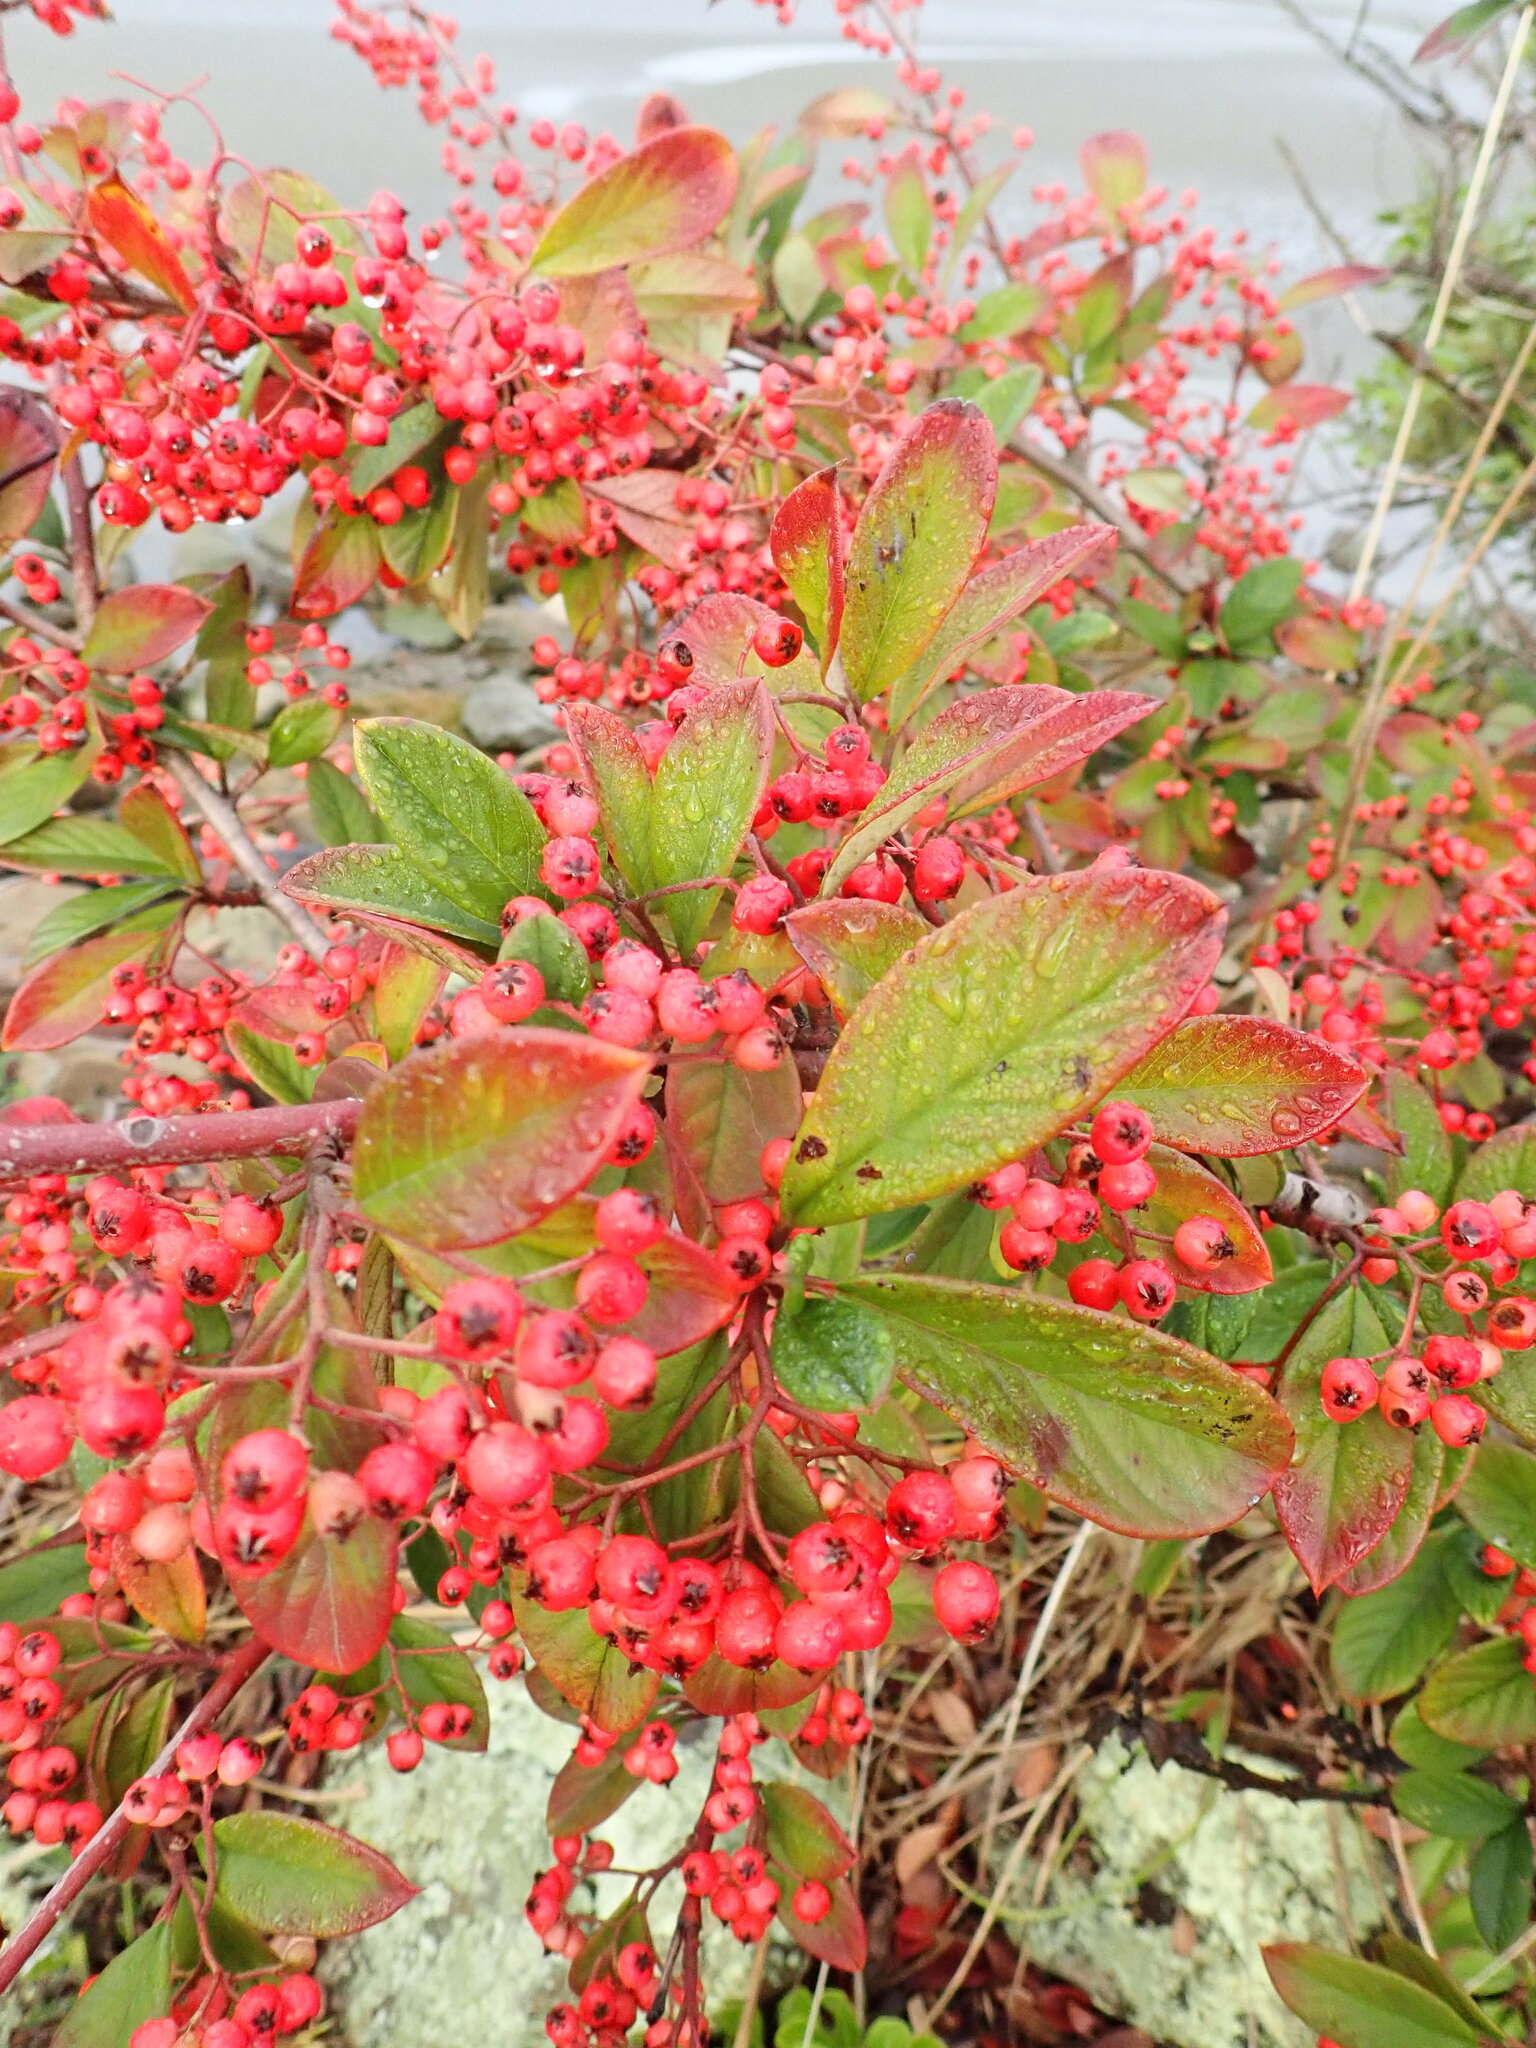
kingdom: Plantae
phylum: Tracheophyta
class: Magnoliopsida
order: Rosales
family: Rosaceae
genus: Cotoneaster
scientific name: Cotoneaster coriaceus
